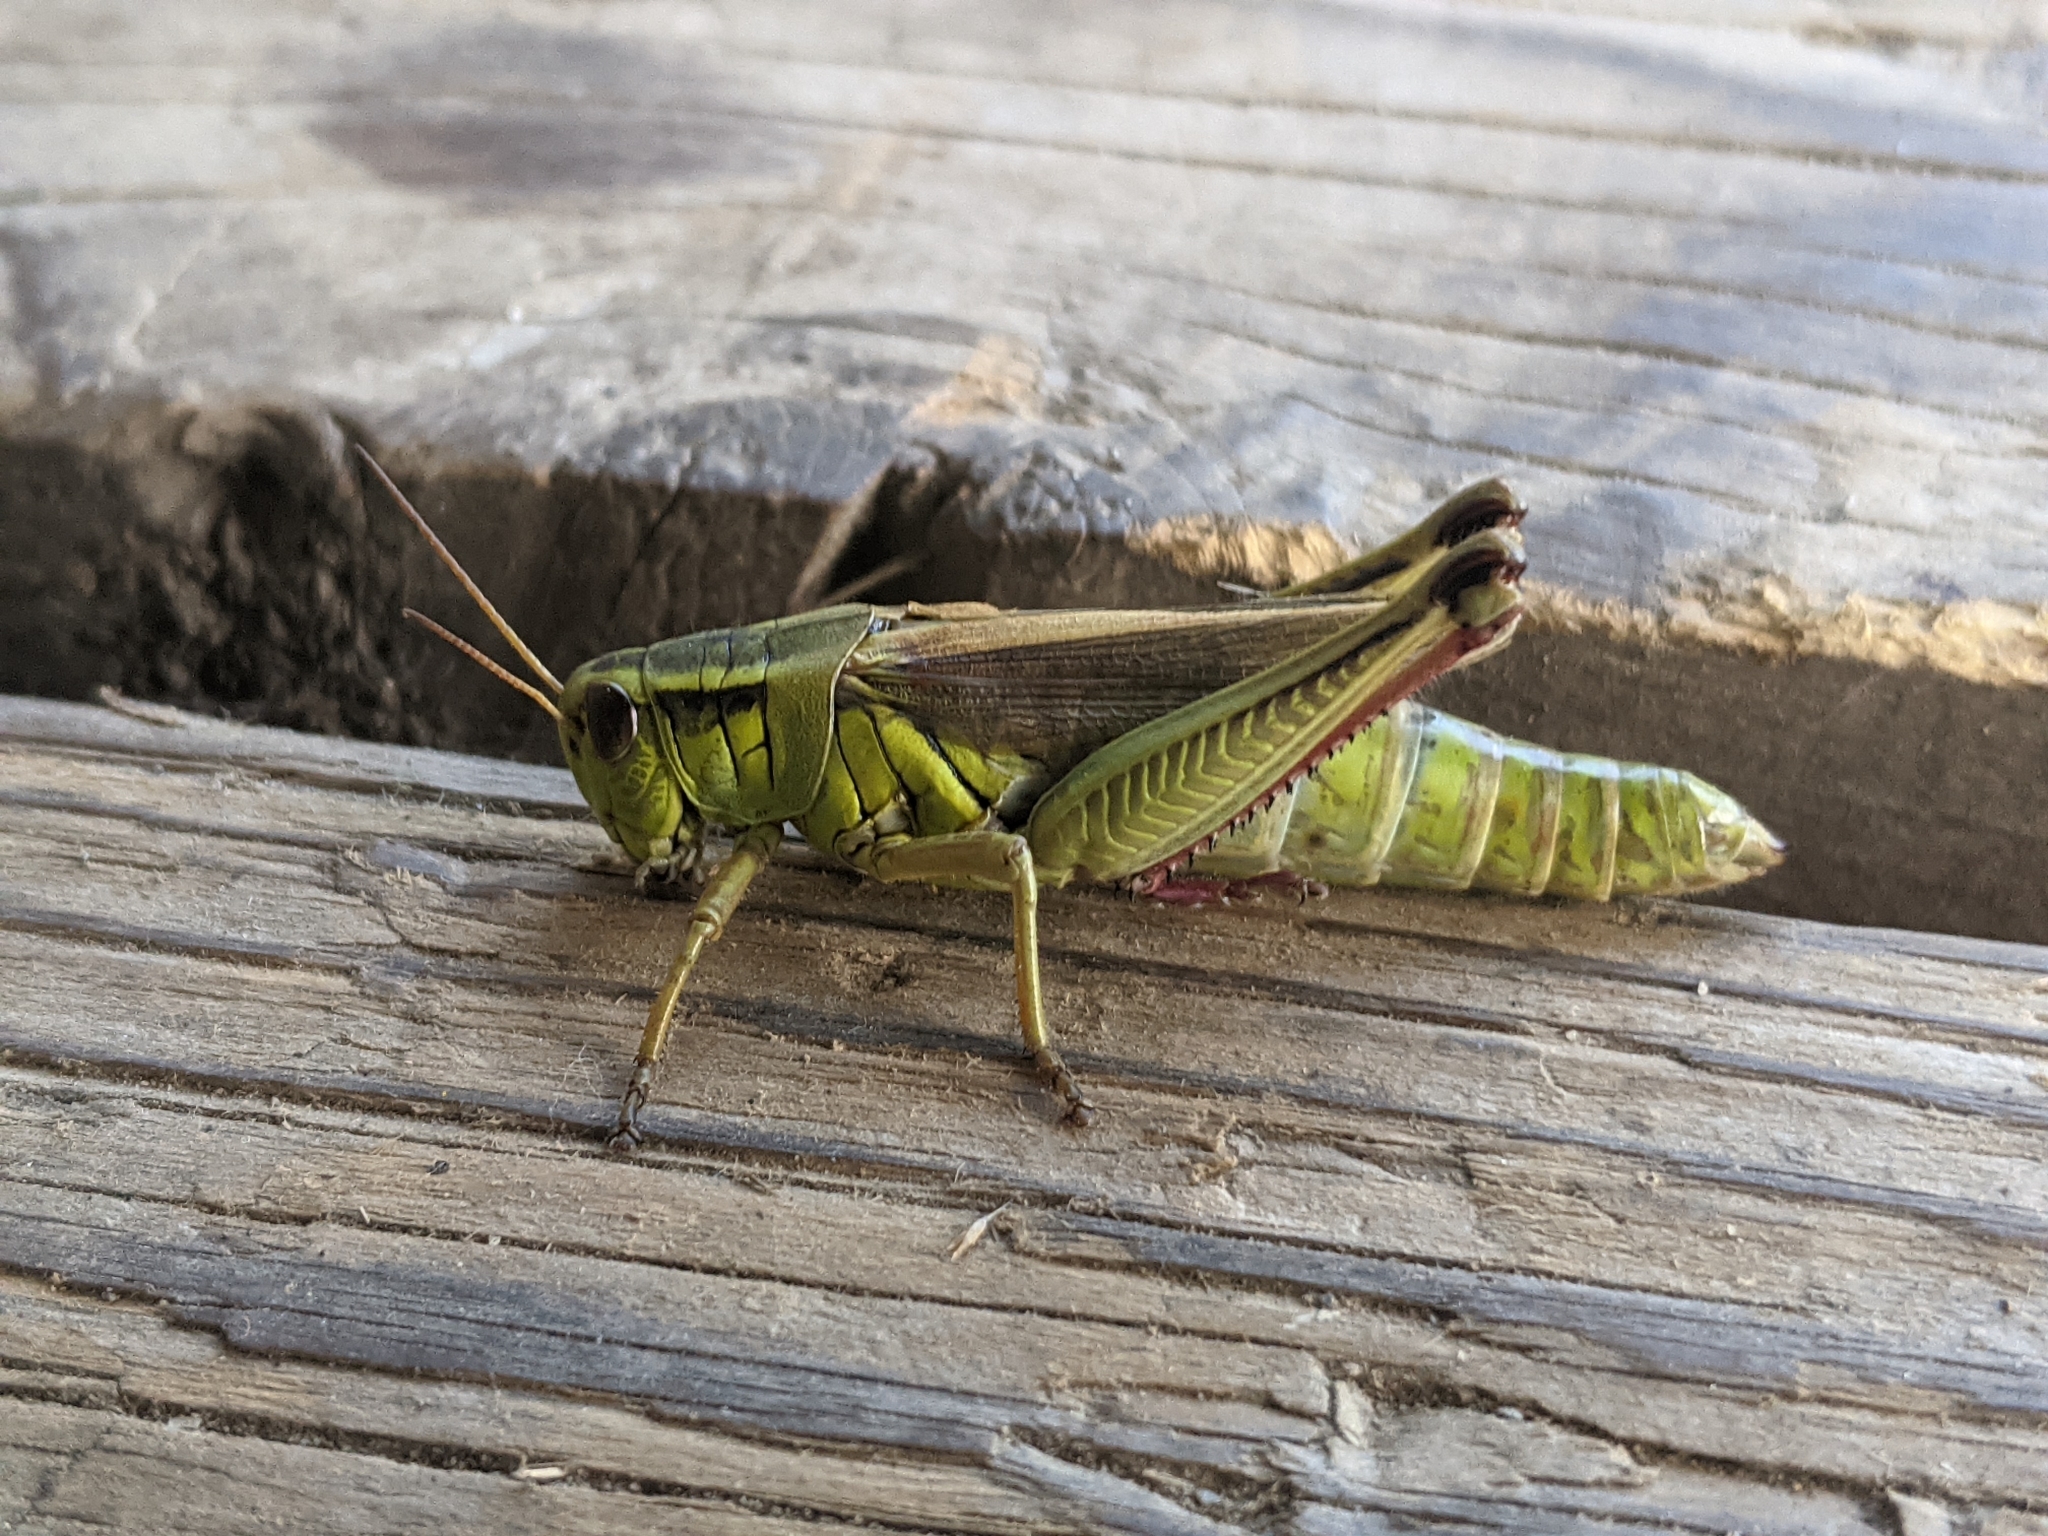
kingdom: Animalia
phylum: Arthropoda
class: Insecta
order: Orthoptera
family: Acrididae
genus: Melanoplus
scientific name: Melanoplus bivittatus
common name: Two-striped grasshopper
